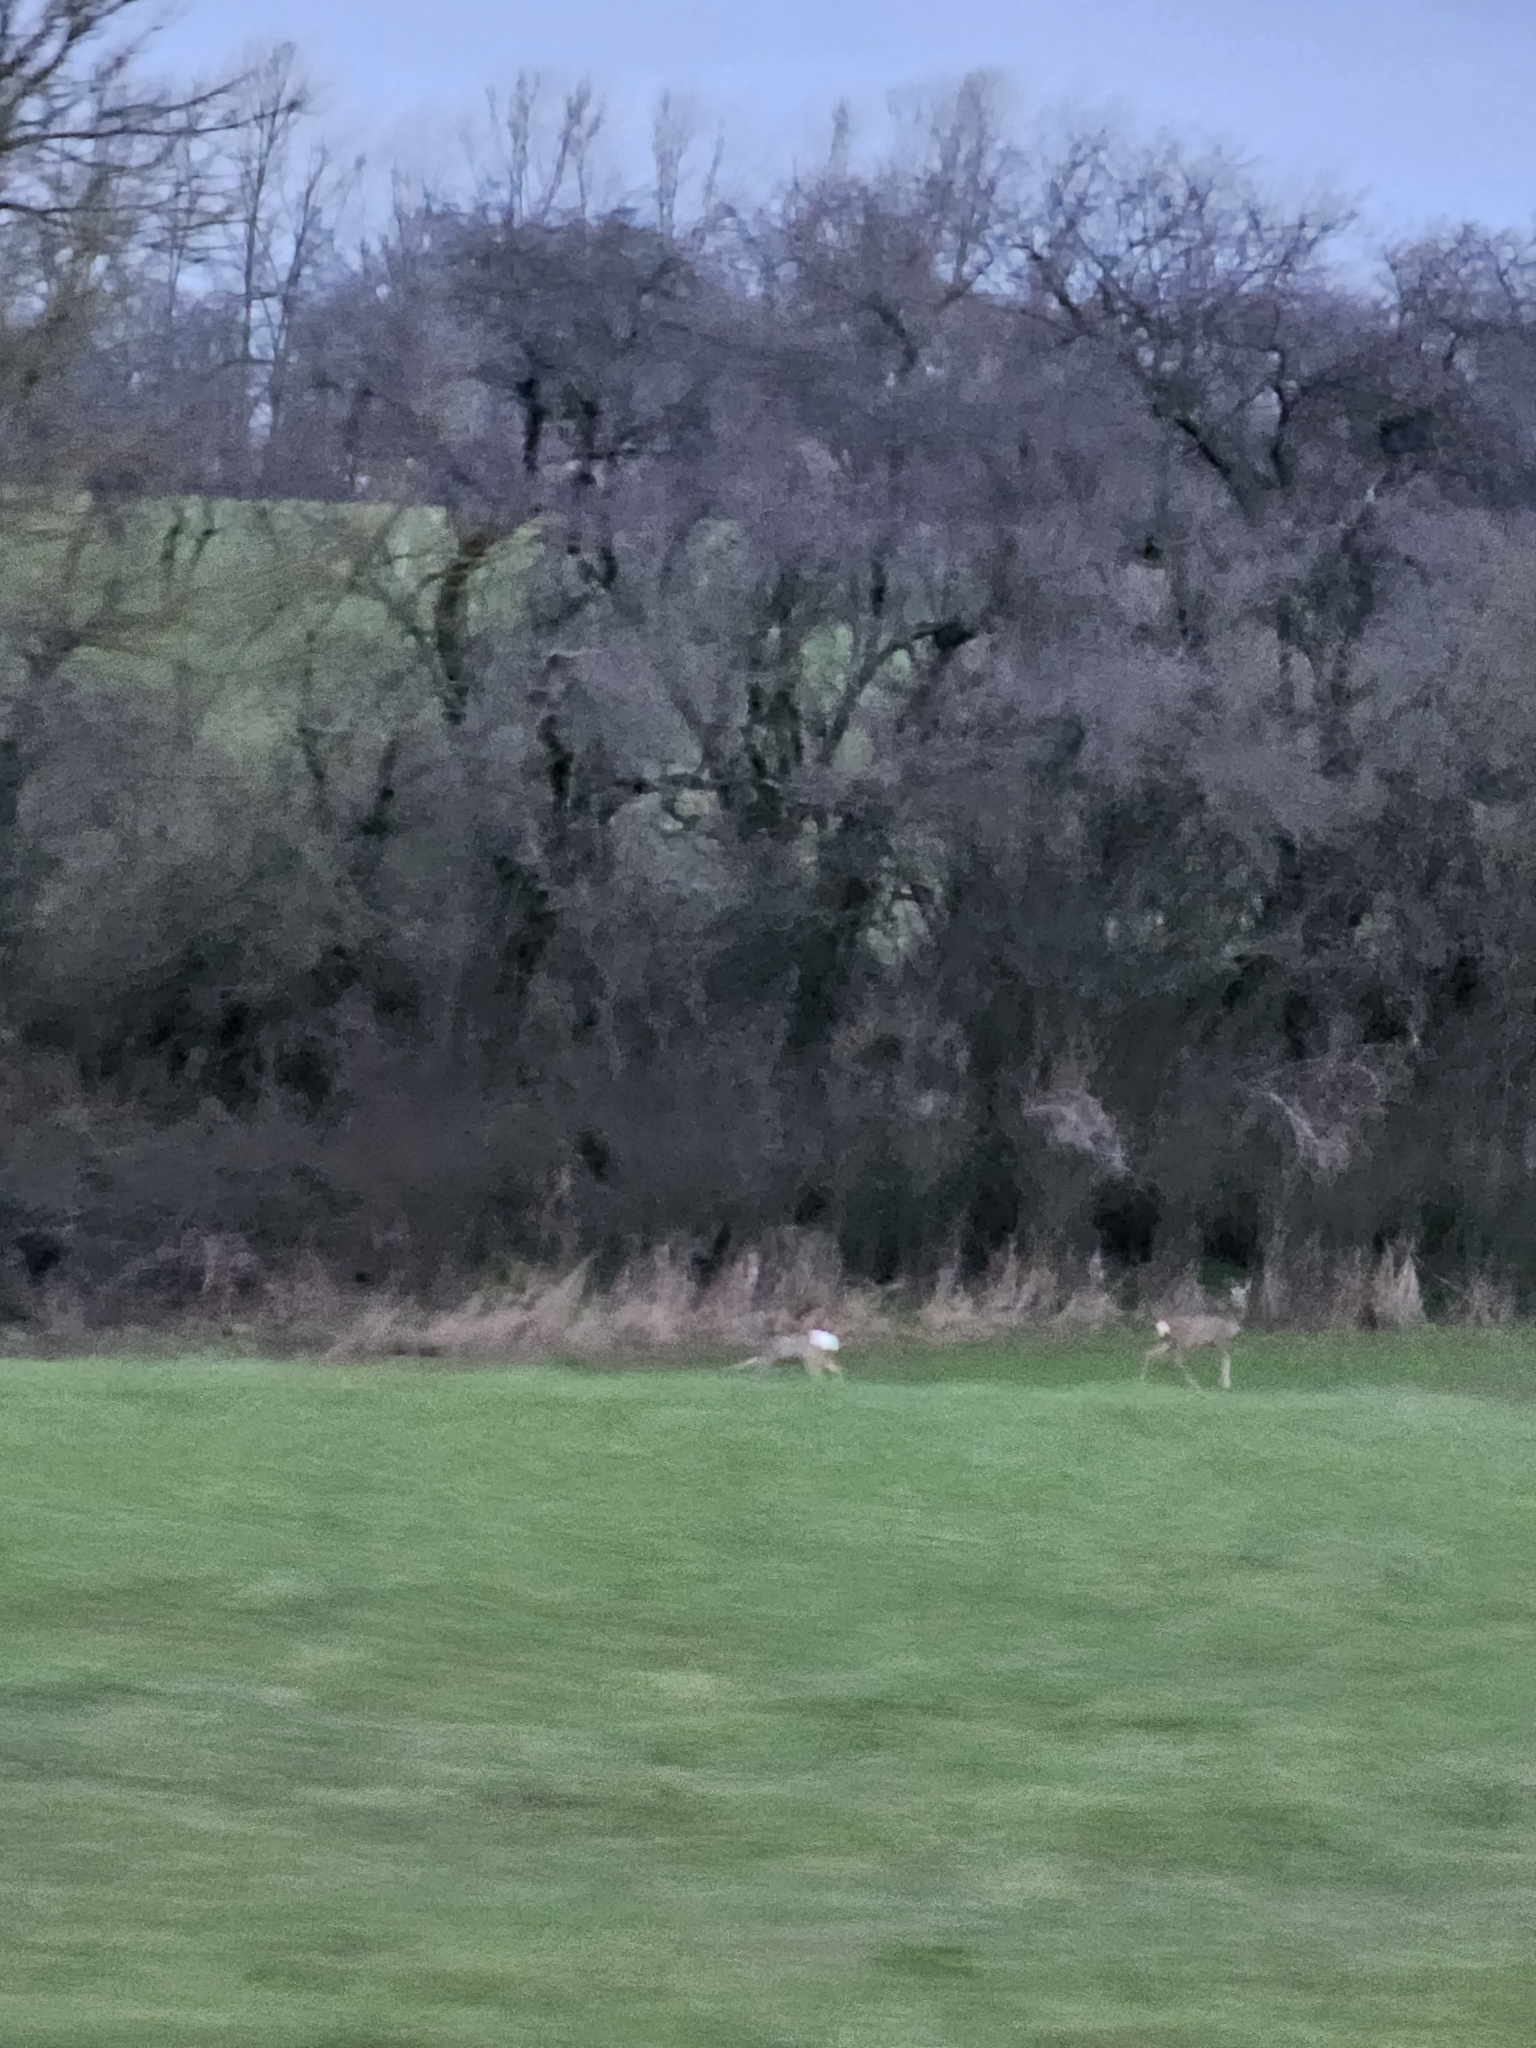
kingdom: Animalia
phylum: Chordata
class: Mammalia
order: Artiodactyla
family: Cervidae
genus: Capreolus
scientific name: Capreolus capreolus
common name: Western roe deer
